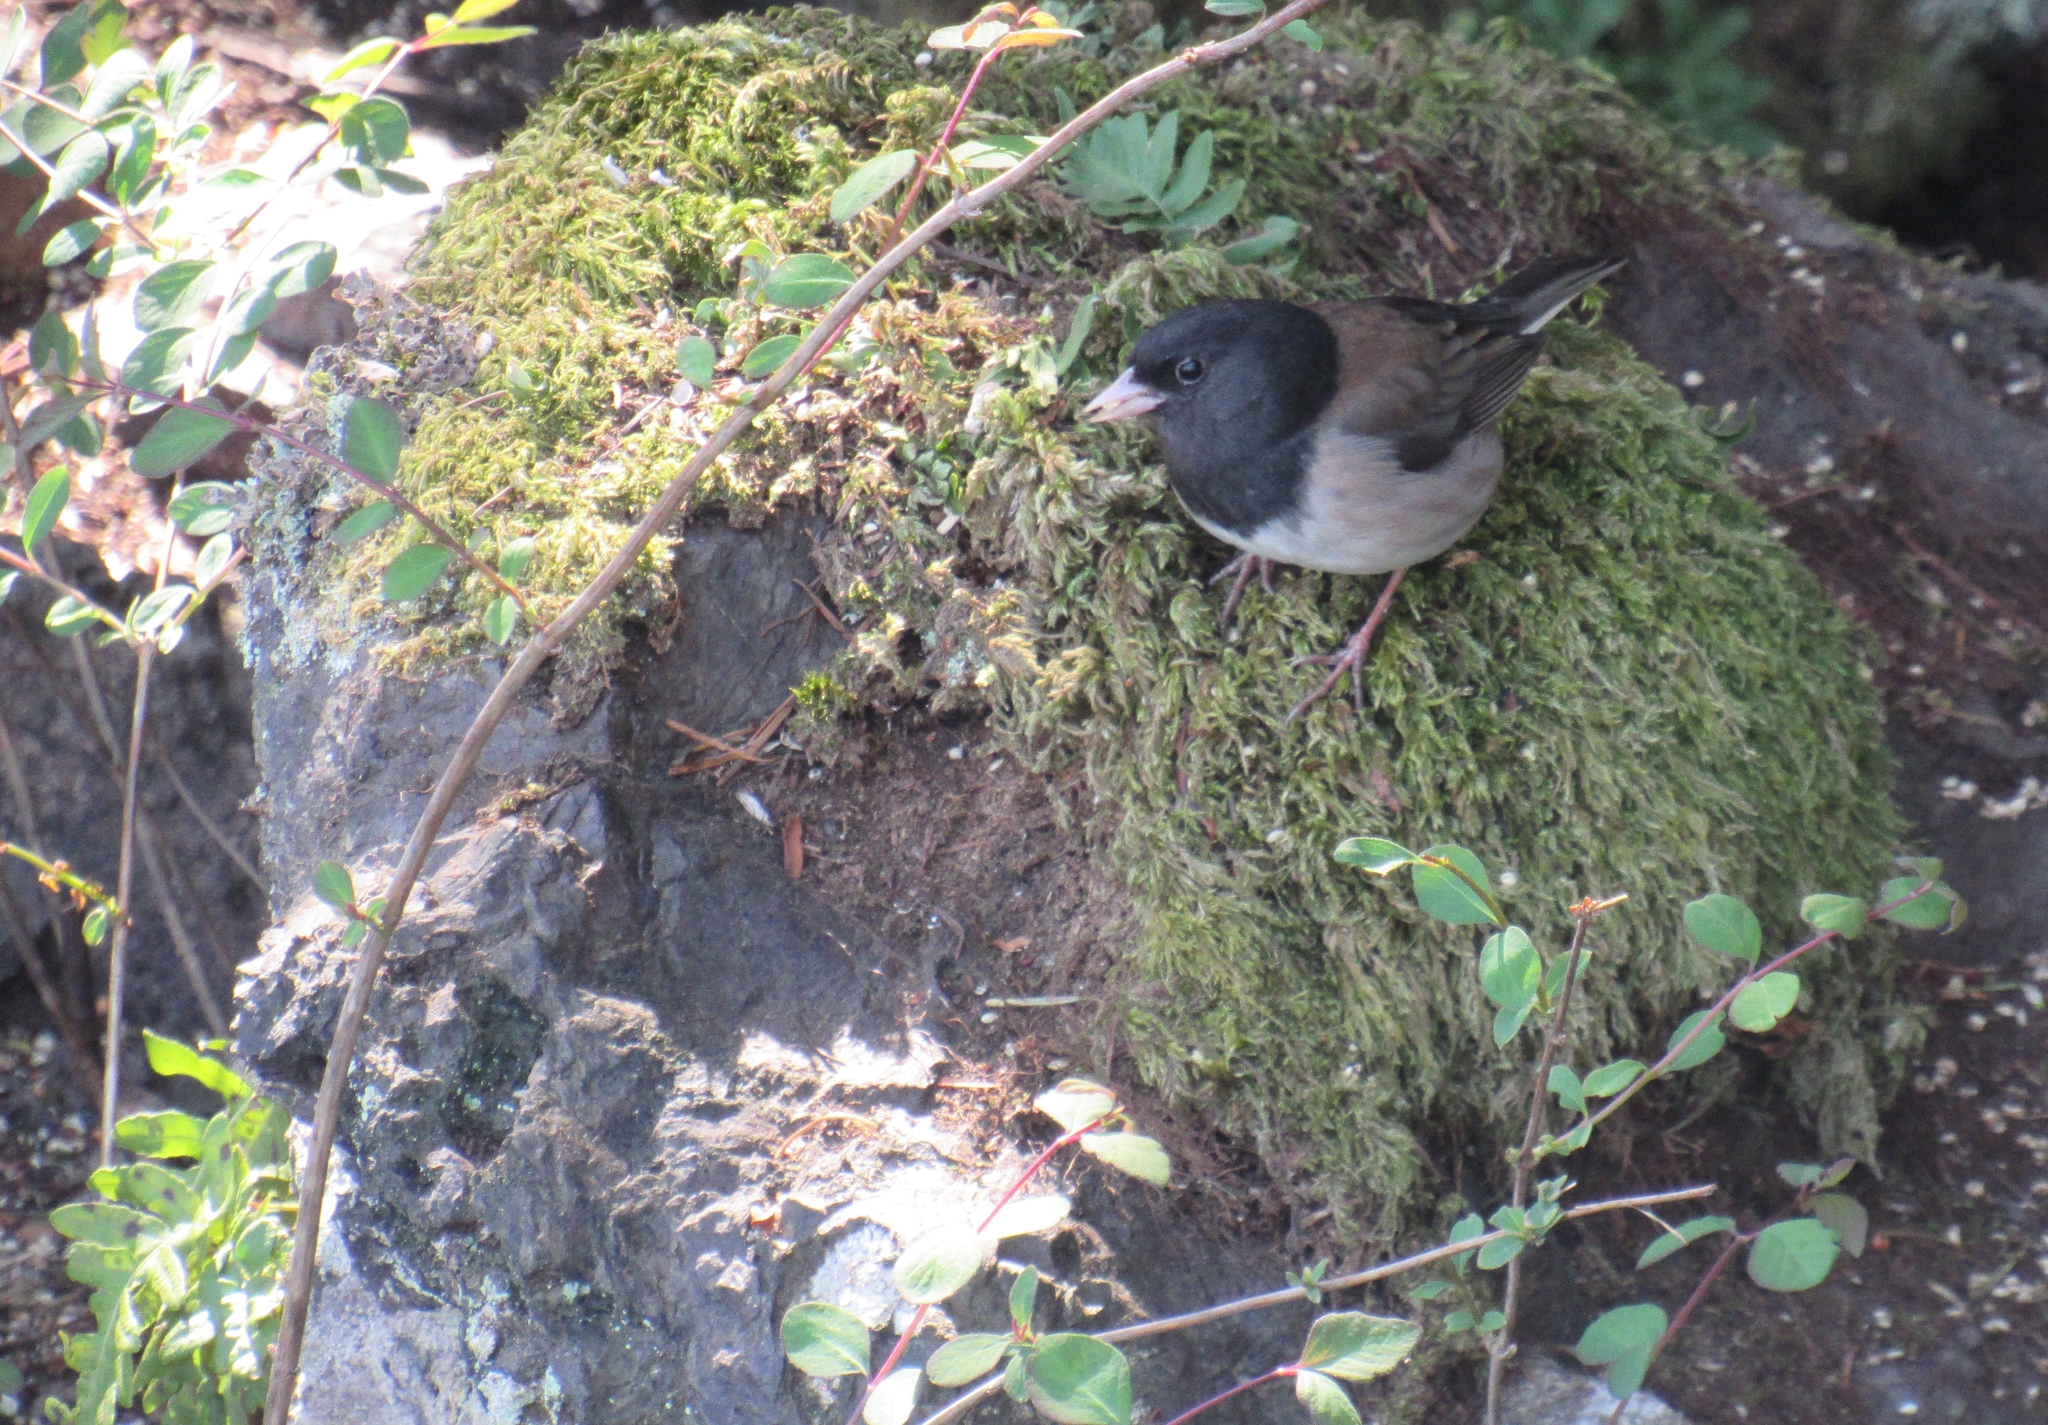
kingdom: Animalia
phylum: Chordata
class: Aves
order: Passeriformes
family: Passerellidae
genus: Junco
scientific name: Junco hyemalis
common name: Dark-eyed junco
